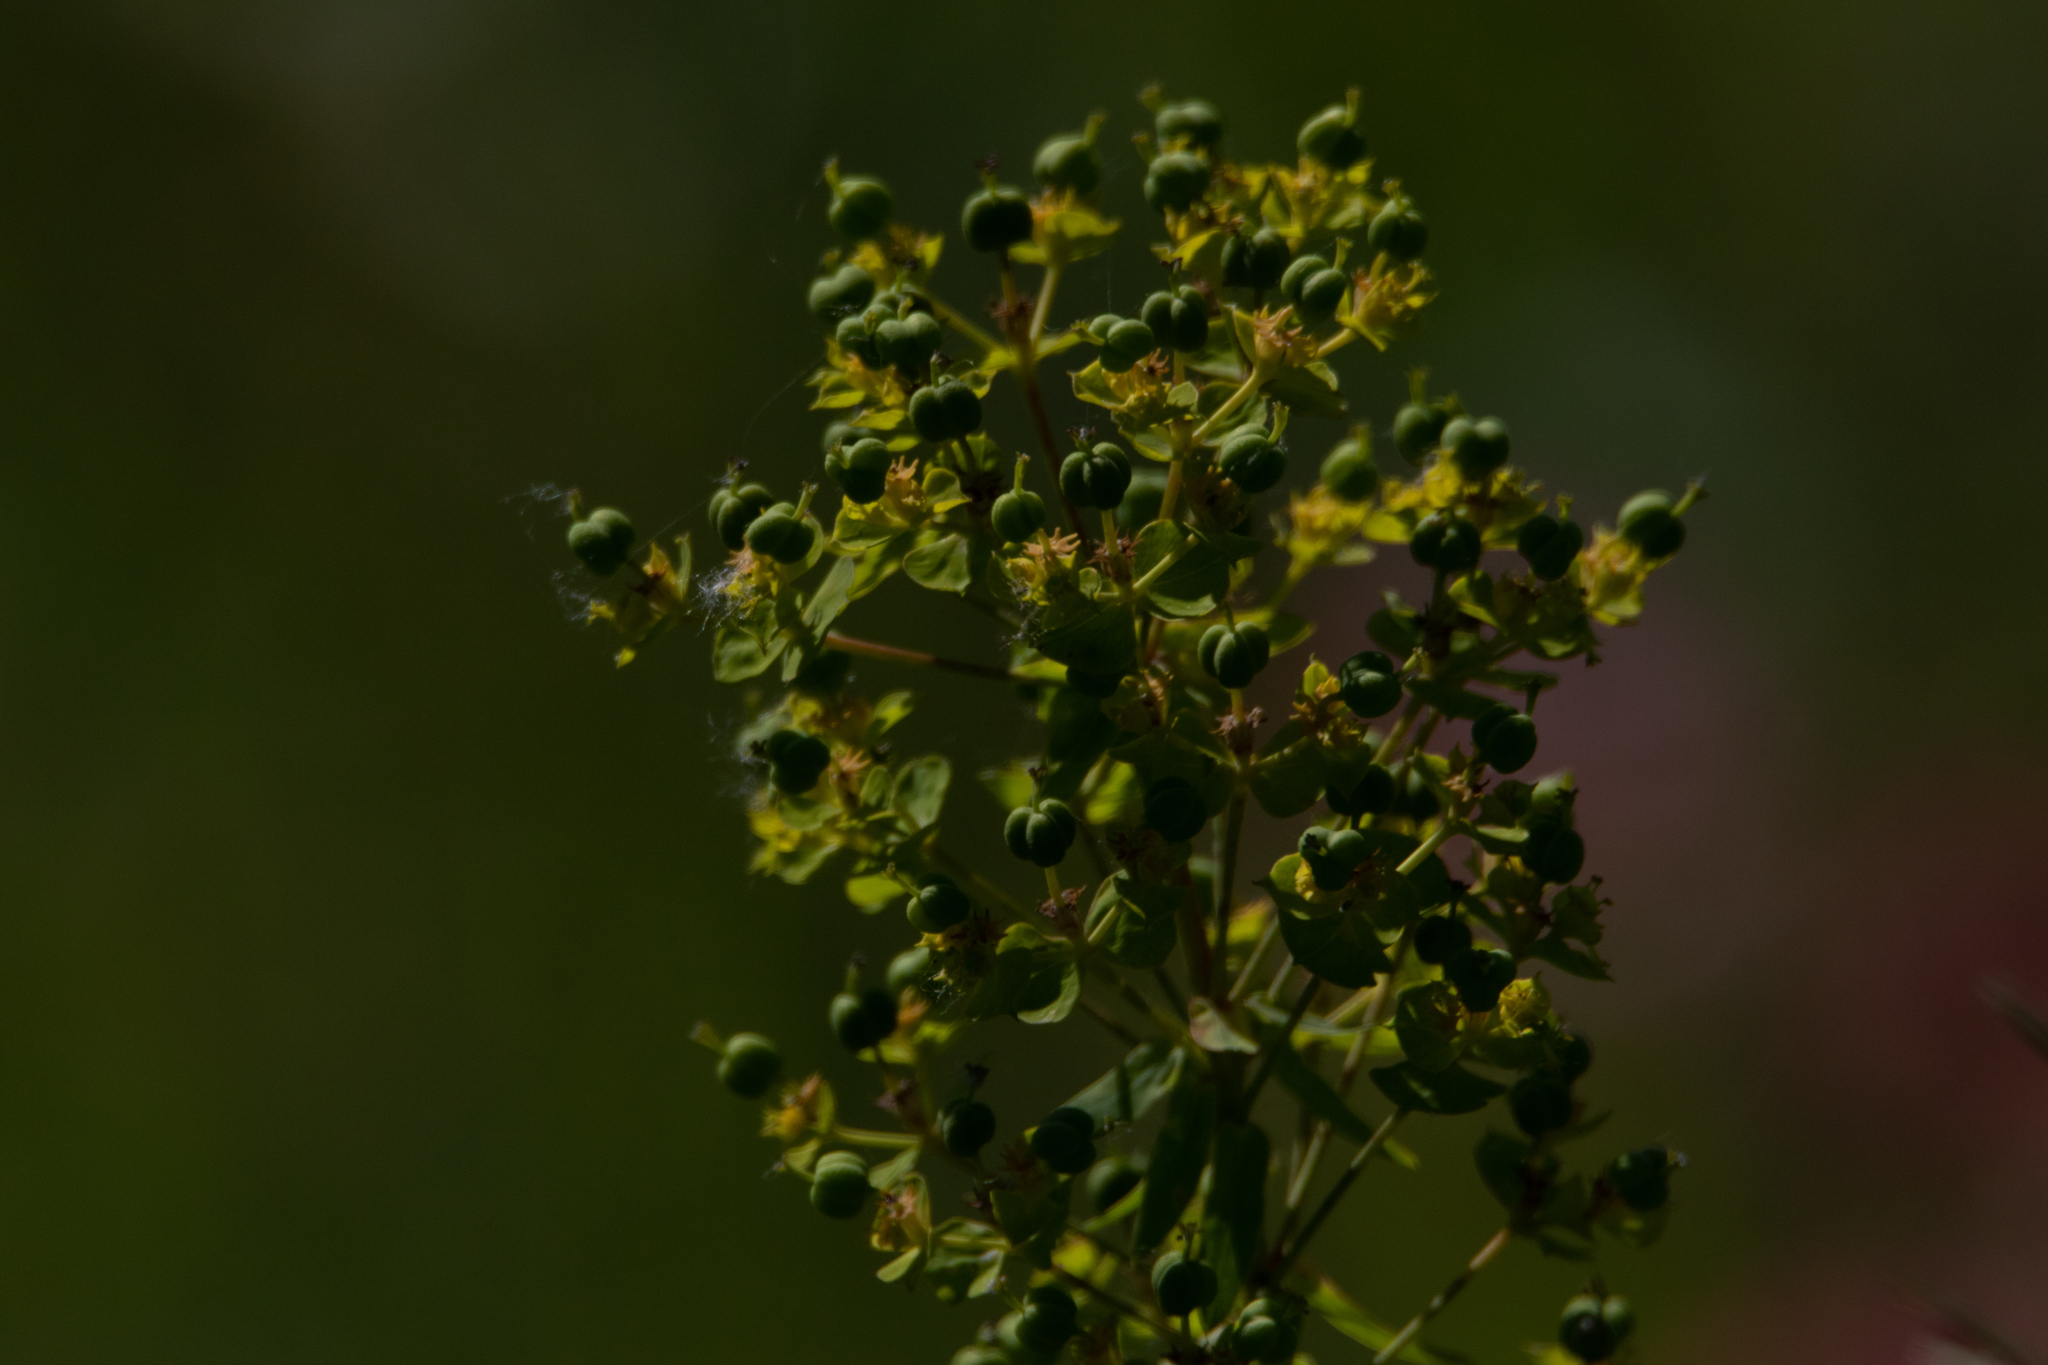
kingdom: Plantae
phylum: Tracheophyta
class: Magnoliopsida
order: Malpighiales
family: Euphorbiaceae
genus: Euphorbia
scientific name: Euphorbia virgata
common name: Leafy spurge
